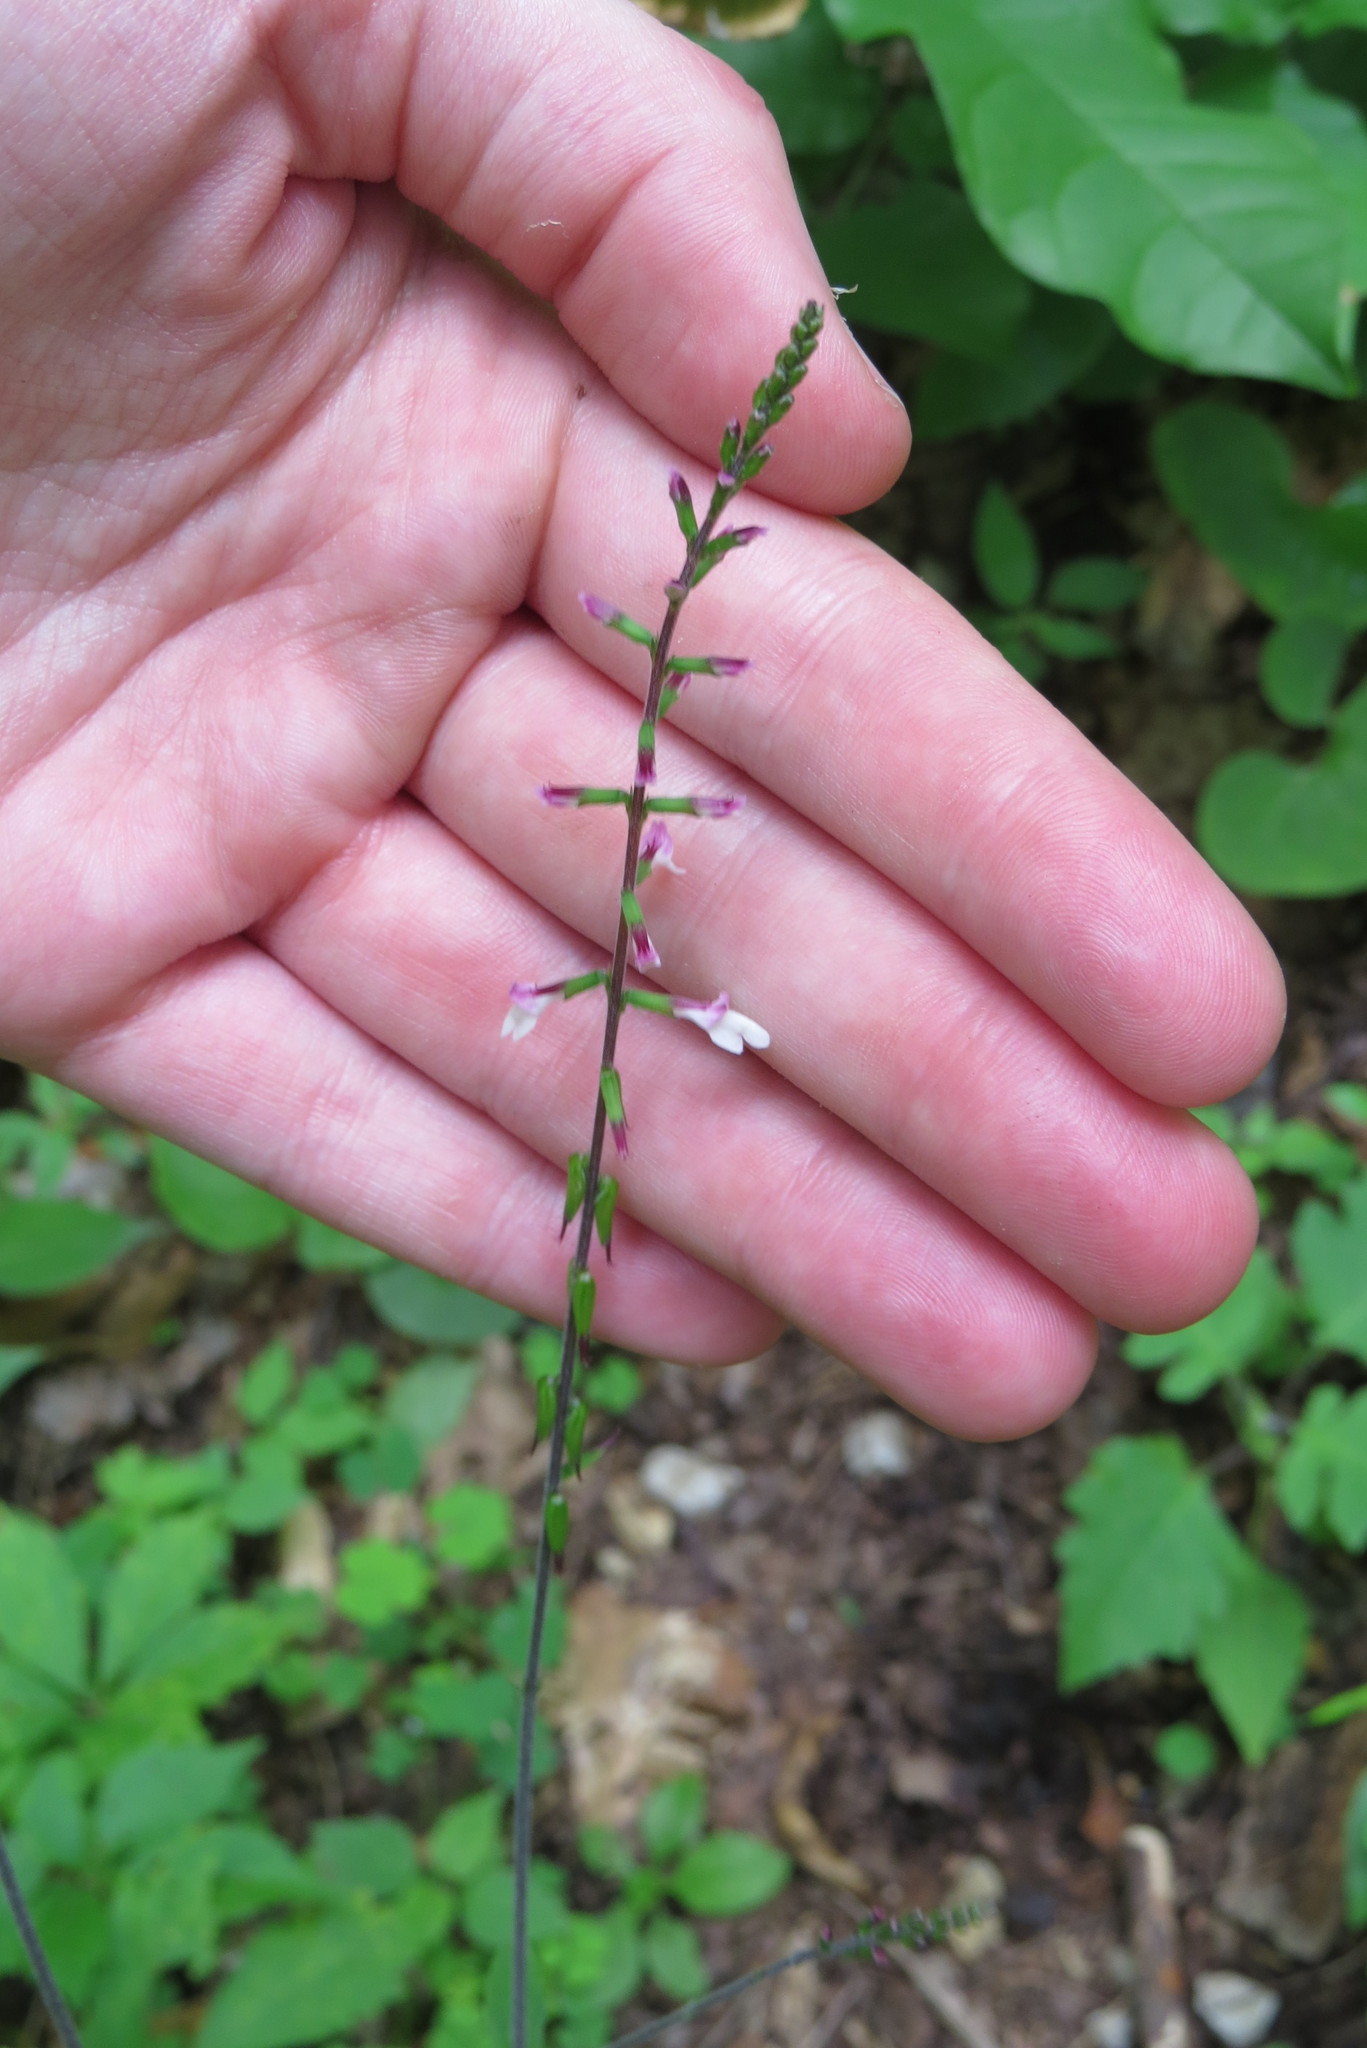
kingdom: Plantae
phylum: Tracheophyta
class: Magnoliopsida
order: Lamiales
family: Phrymaceae
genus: Phryma
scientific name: Phryma leptostachya
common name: American lopseed
